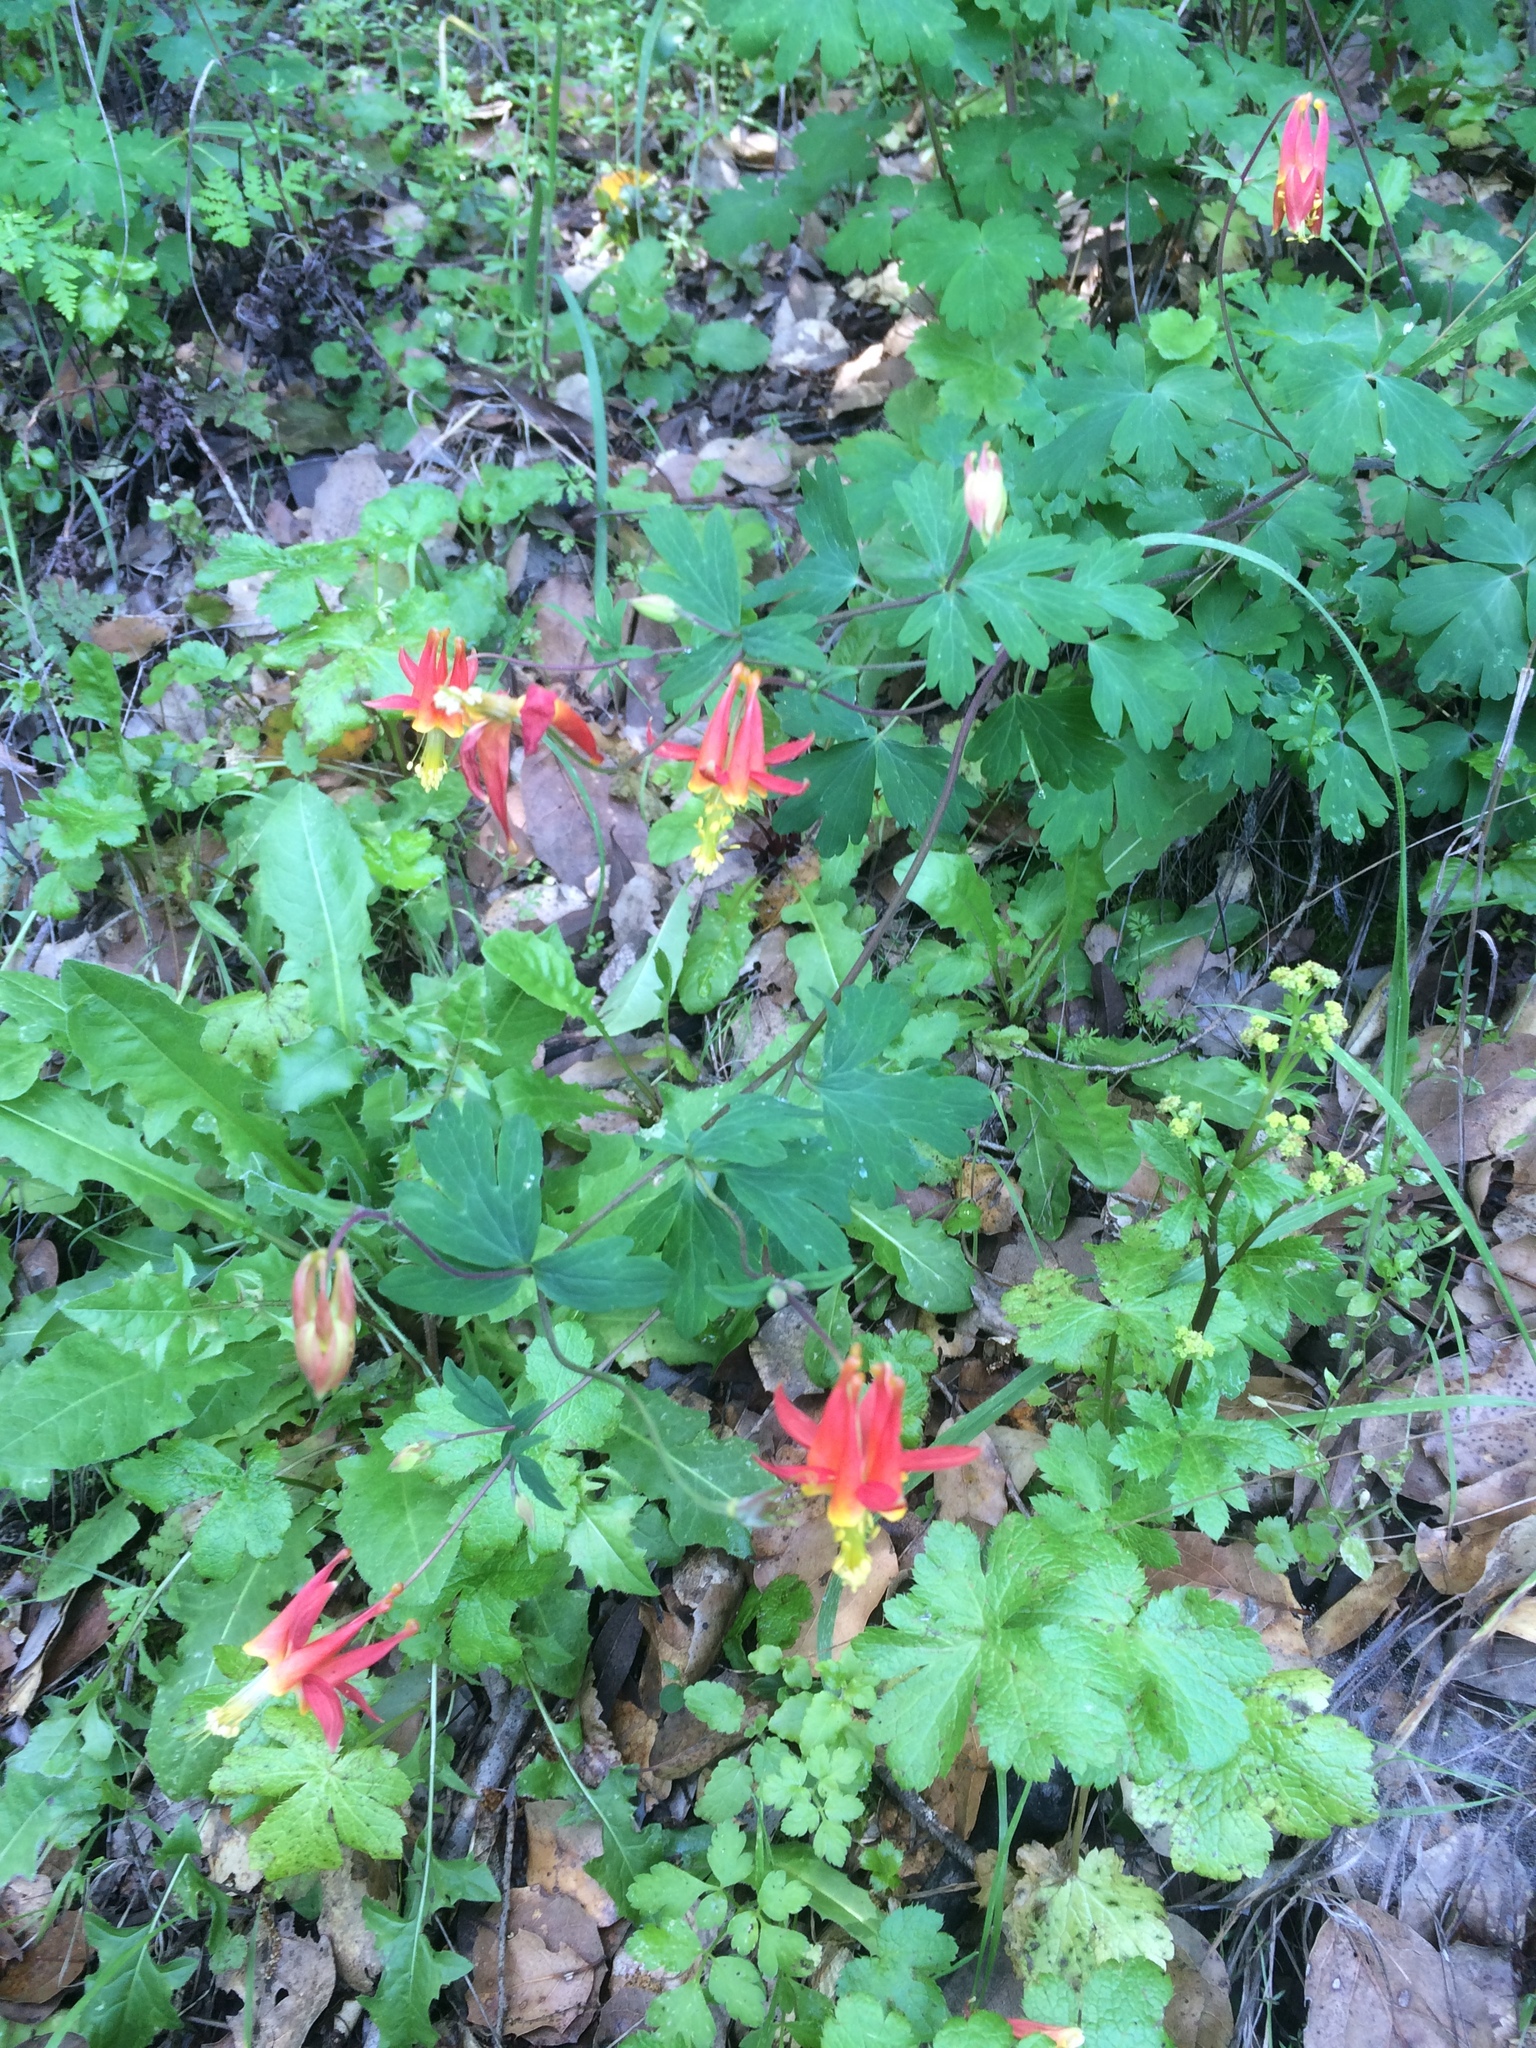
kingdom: Plantae
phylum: Tracheophyta
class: Magnoliopsida
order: Ranunculales
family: Ranunculaceae
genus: Aquilegia
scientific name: Aquilegia formosa
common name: Sitka columbine
